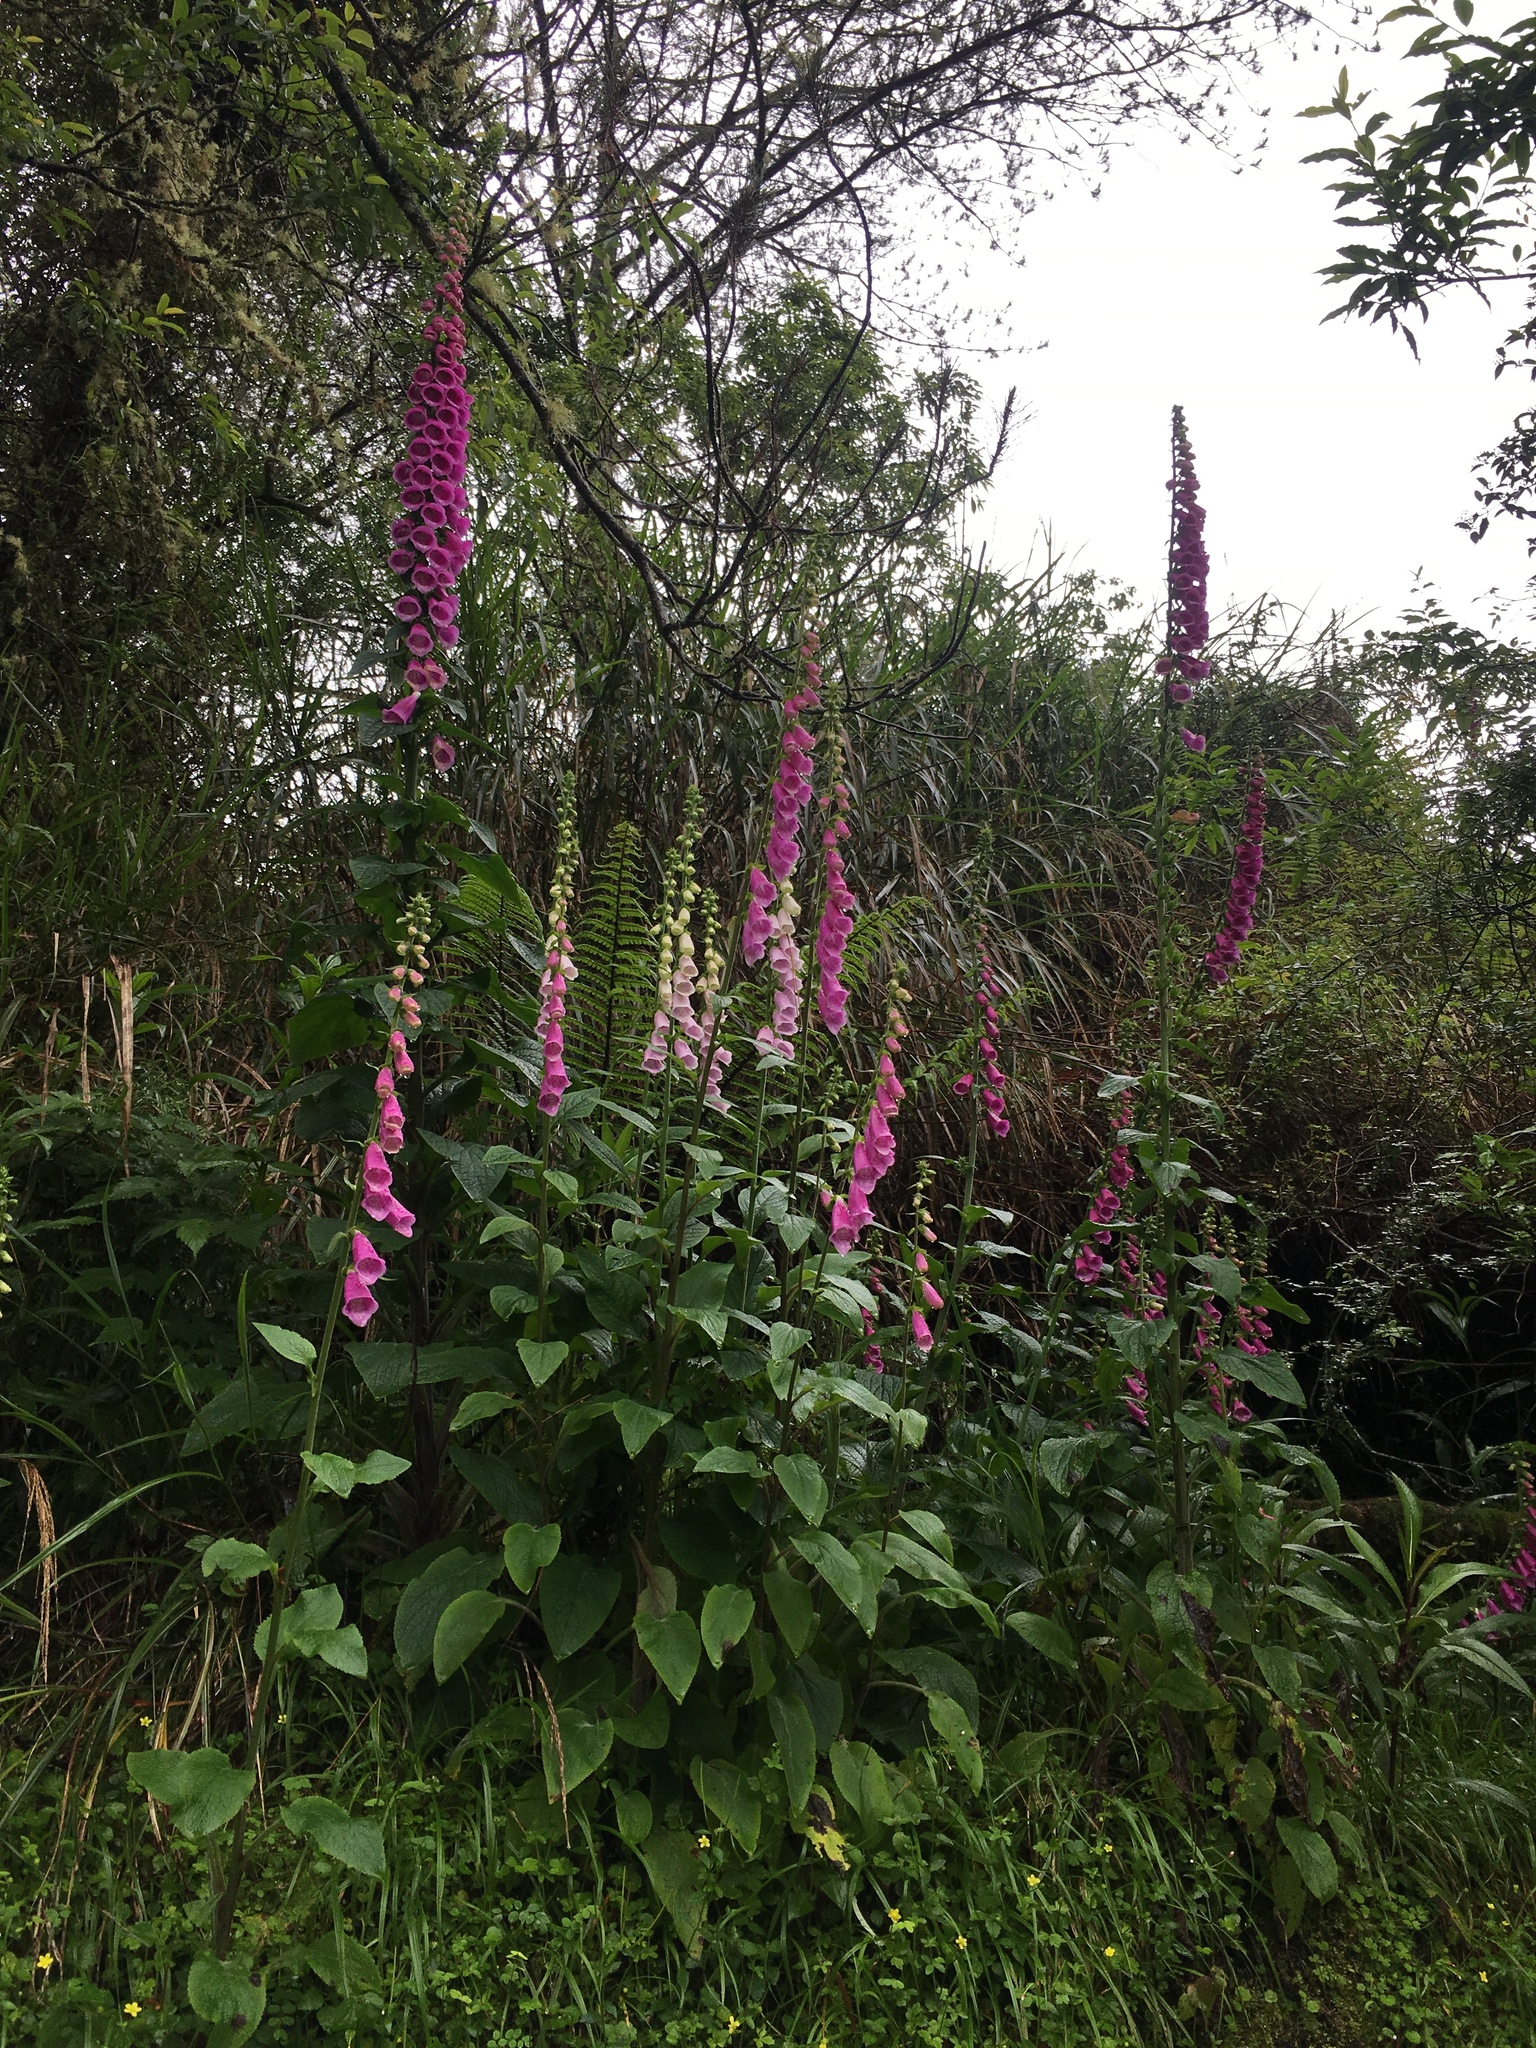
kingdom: Plantae
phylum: Tracheophyta
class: Magnoliopsida
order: Lamiales
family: Plantaginaceae
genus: Digitalis
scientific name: Digitalis purpurea
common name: Foxglove
